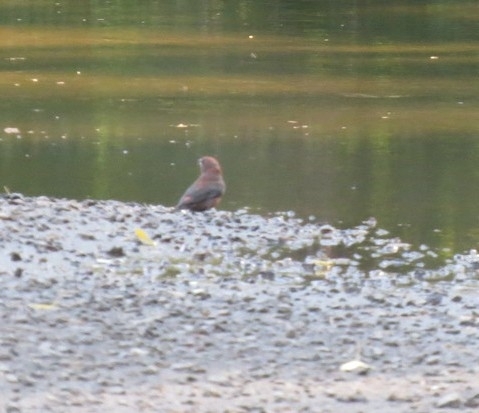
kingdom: Animalia
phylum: Chordata
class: Aves
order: Passeriformes
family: Fringillidae
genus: Loxia
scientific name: Loxia curvirostra
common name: Red crossbill
